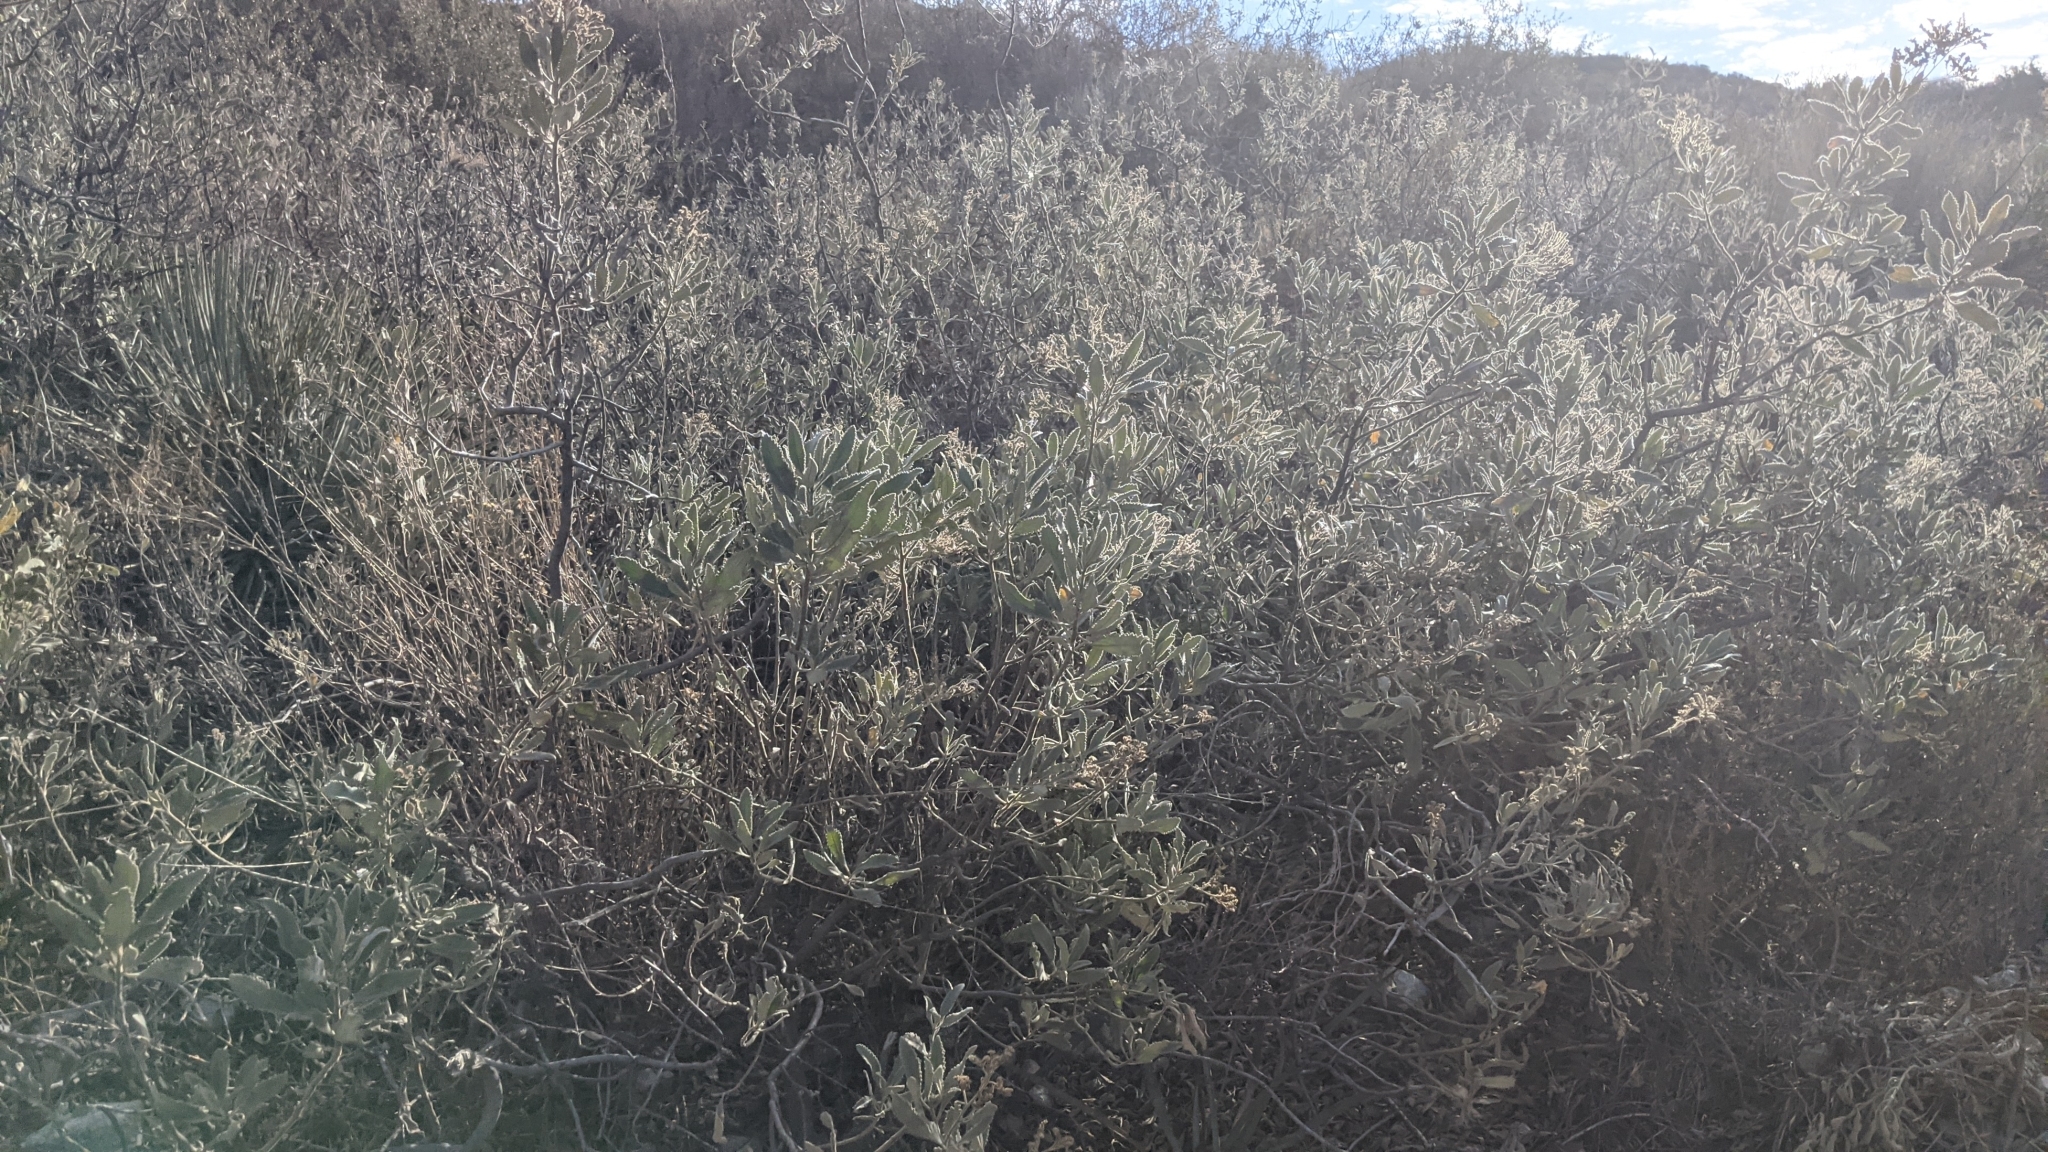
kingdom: Plantae
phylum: Tracheophyta
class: Magnoliopsida
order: Boraginales
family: Namaceae
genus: Eriodictyon
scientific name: Eriodictyon crassifolium
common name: Thick-leaf yerba-santa
